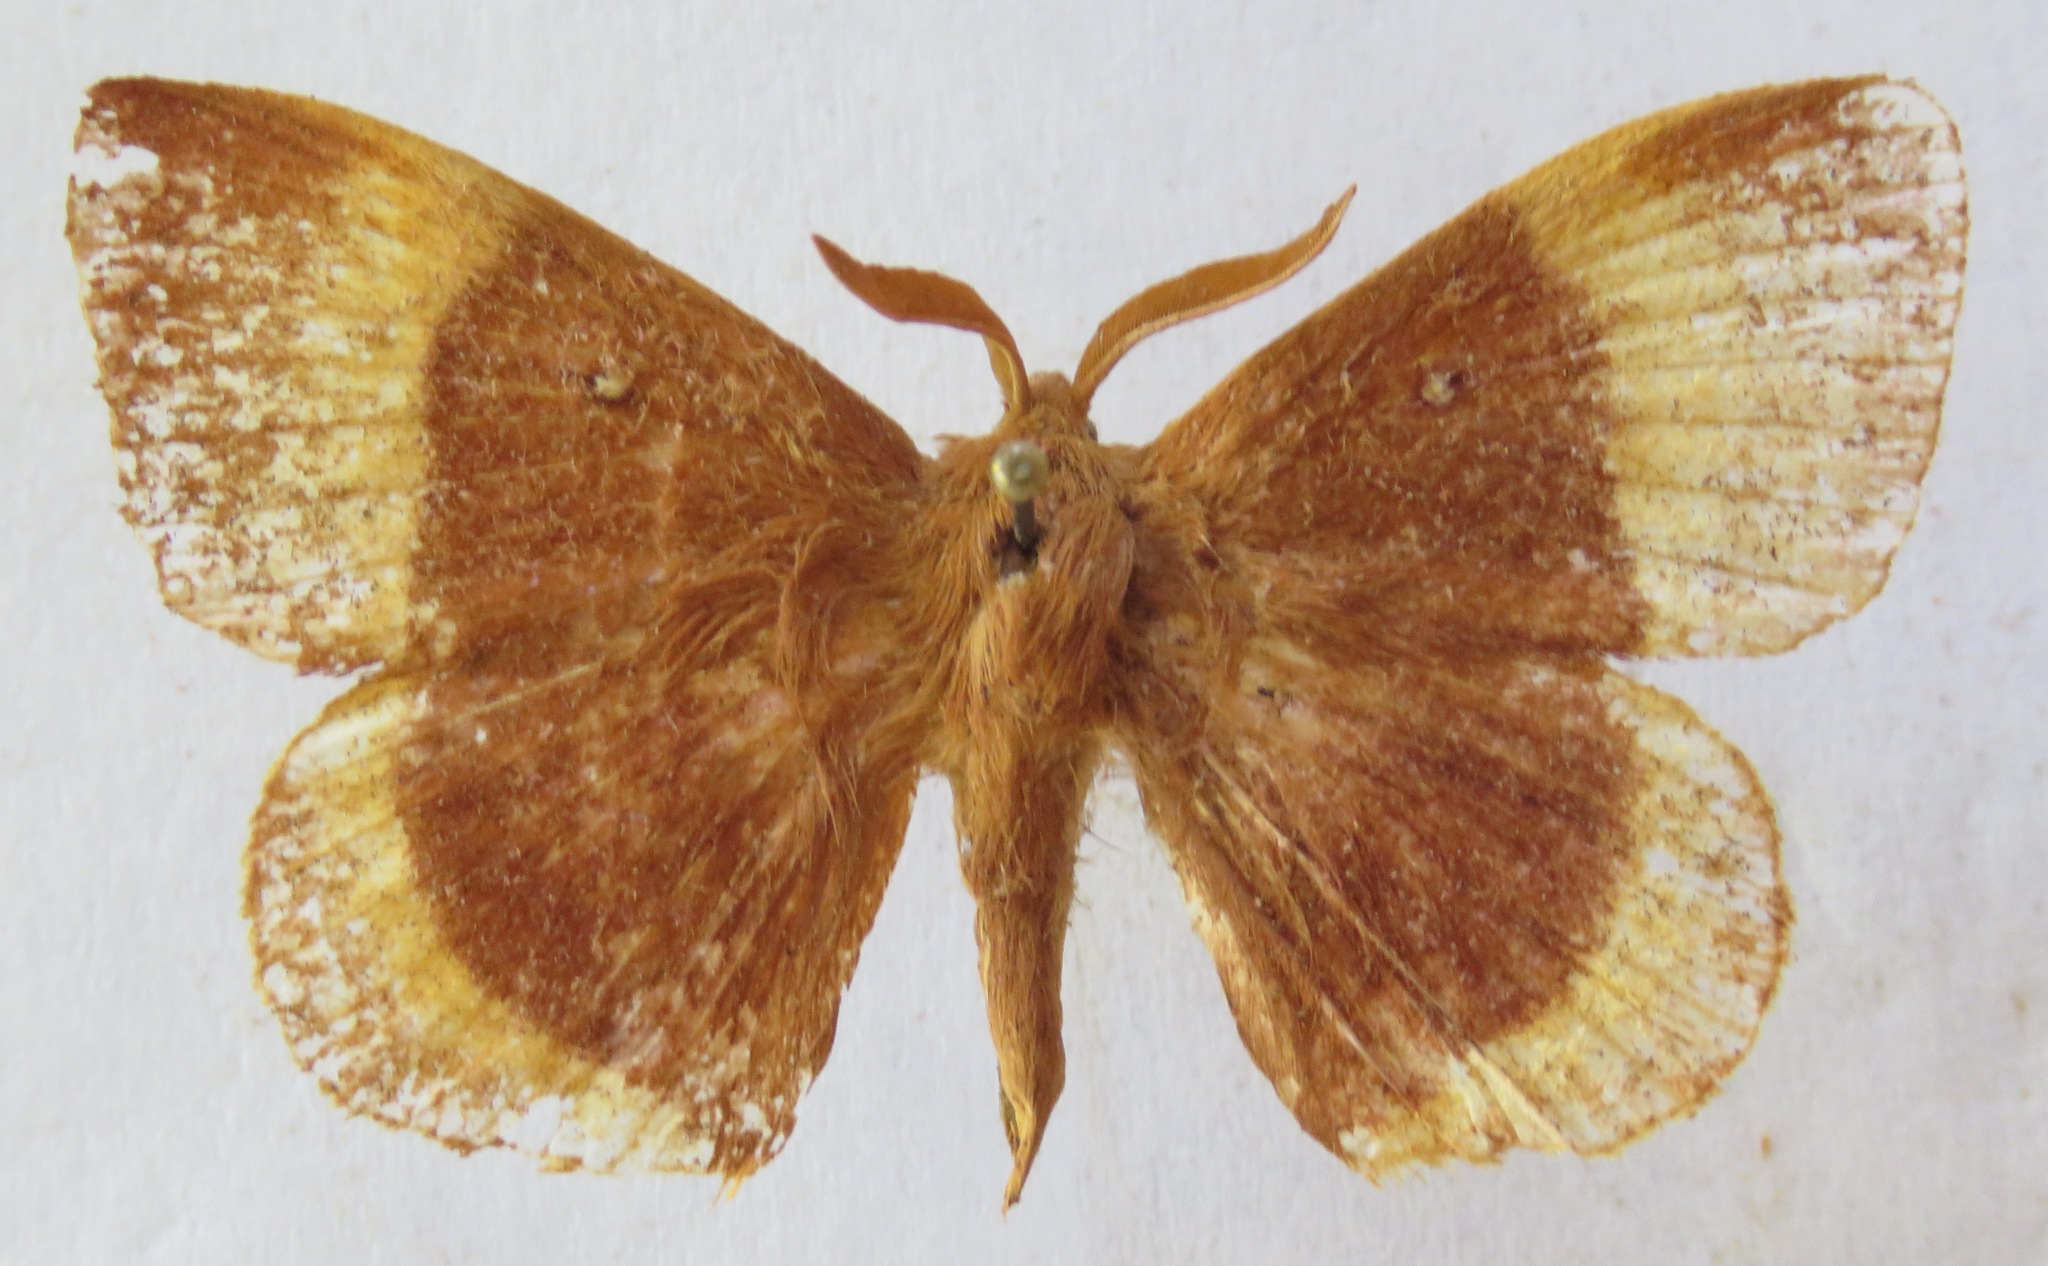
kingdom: Animalia
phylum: Arthropoda
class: Insecta
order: Lepidoptera
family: Lasiocampidae
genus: Lasiocampa
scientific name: Lasiocampa quercus
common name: Oak eggar
